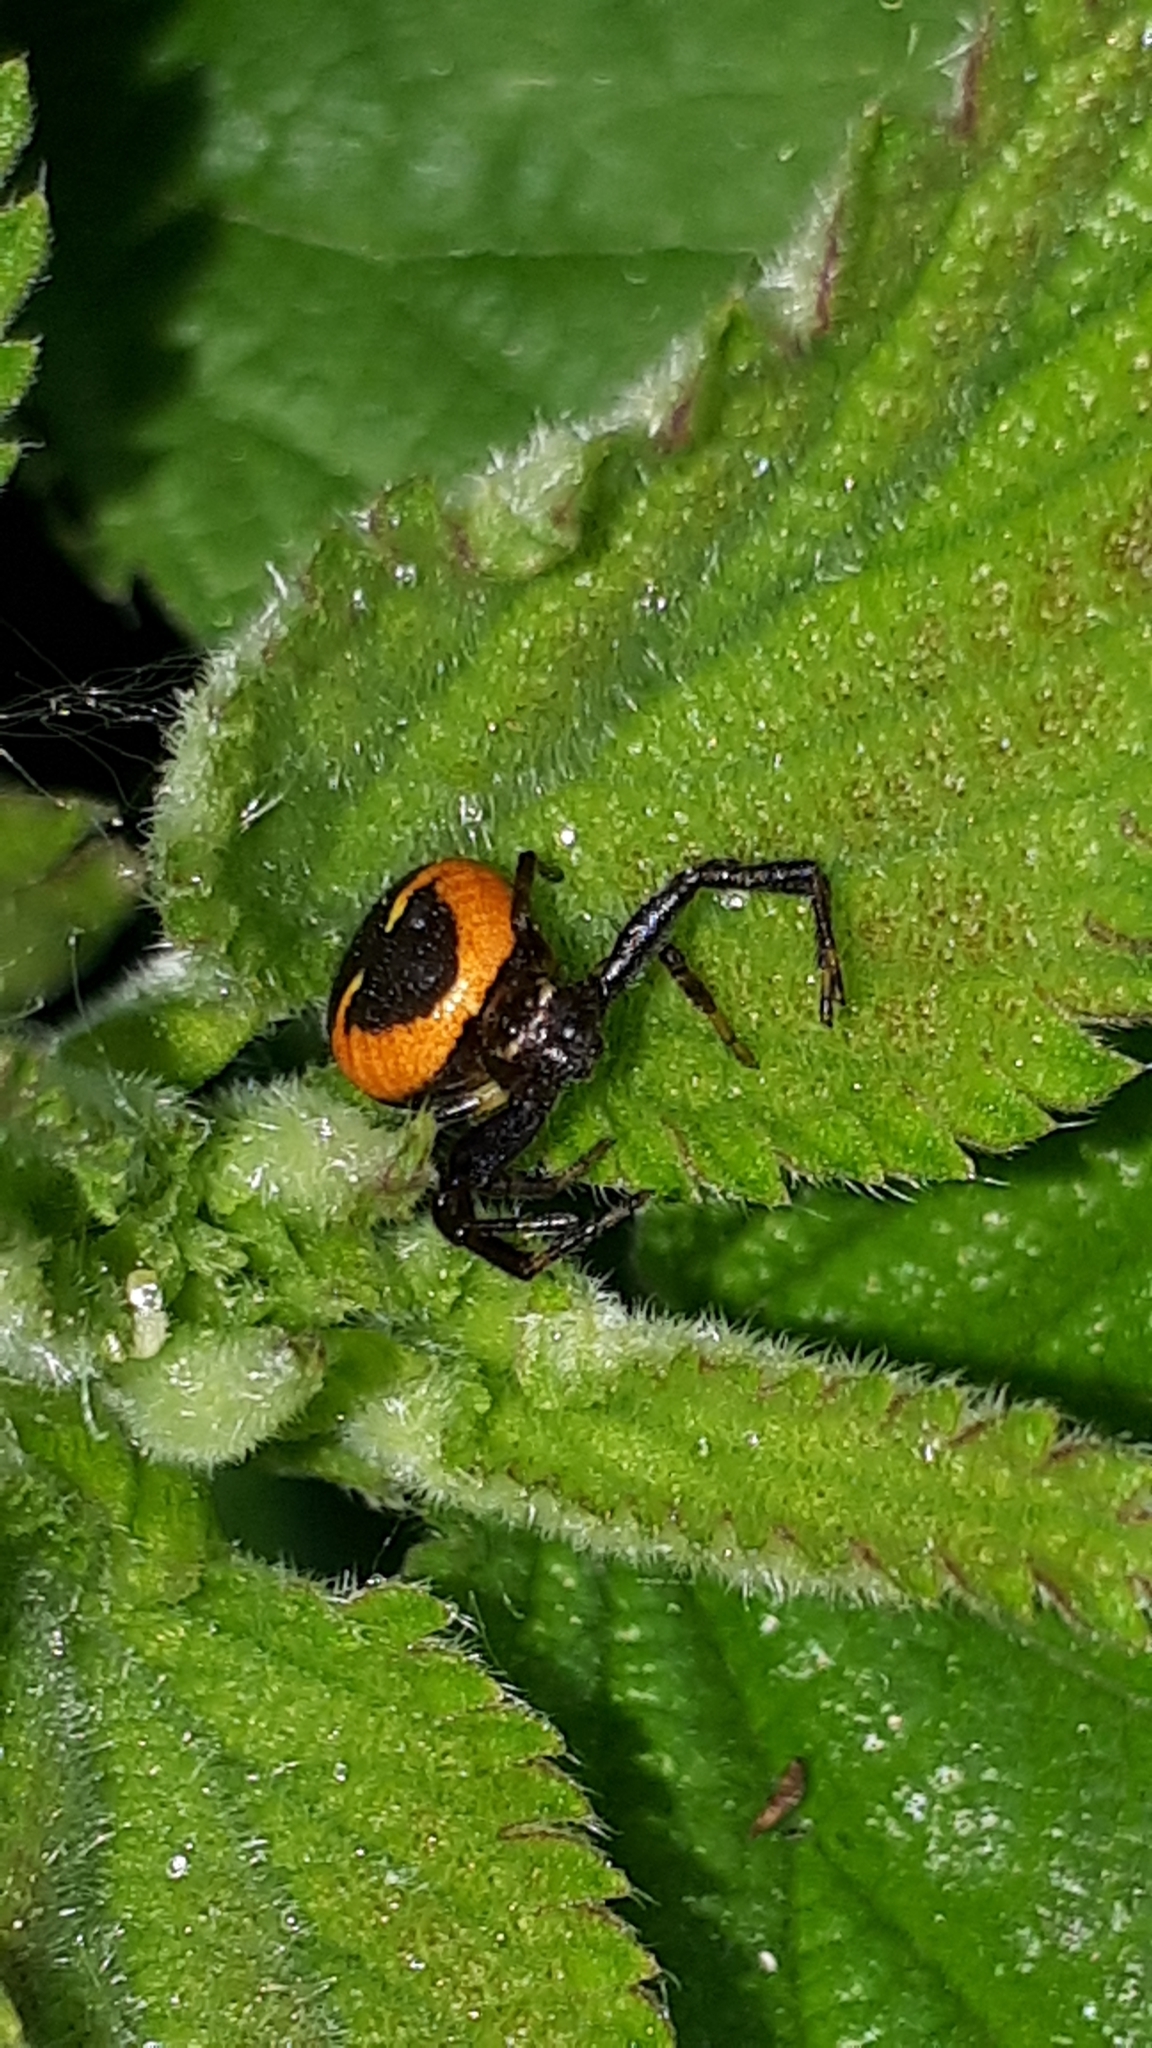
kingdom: Animalia
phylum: Arthropoda
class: Arachnida
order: Araneae
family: Thomisidae
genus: Synema
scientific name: Synema globosum
